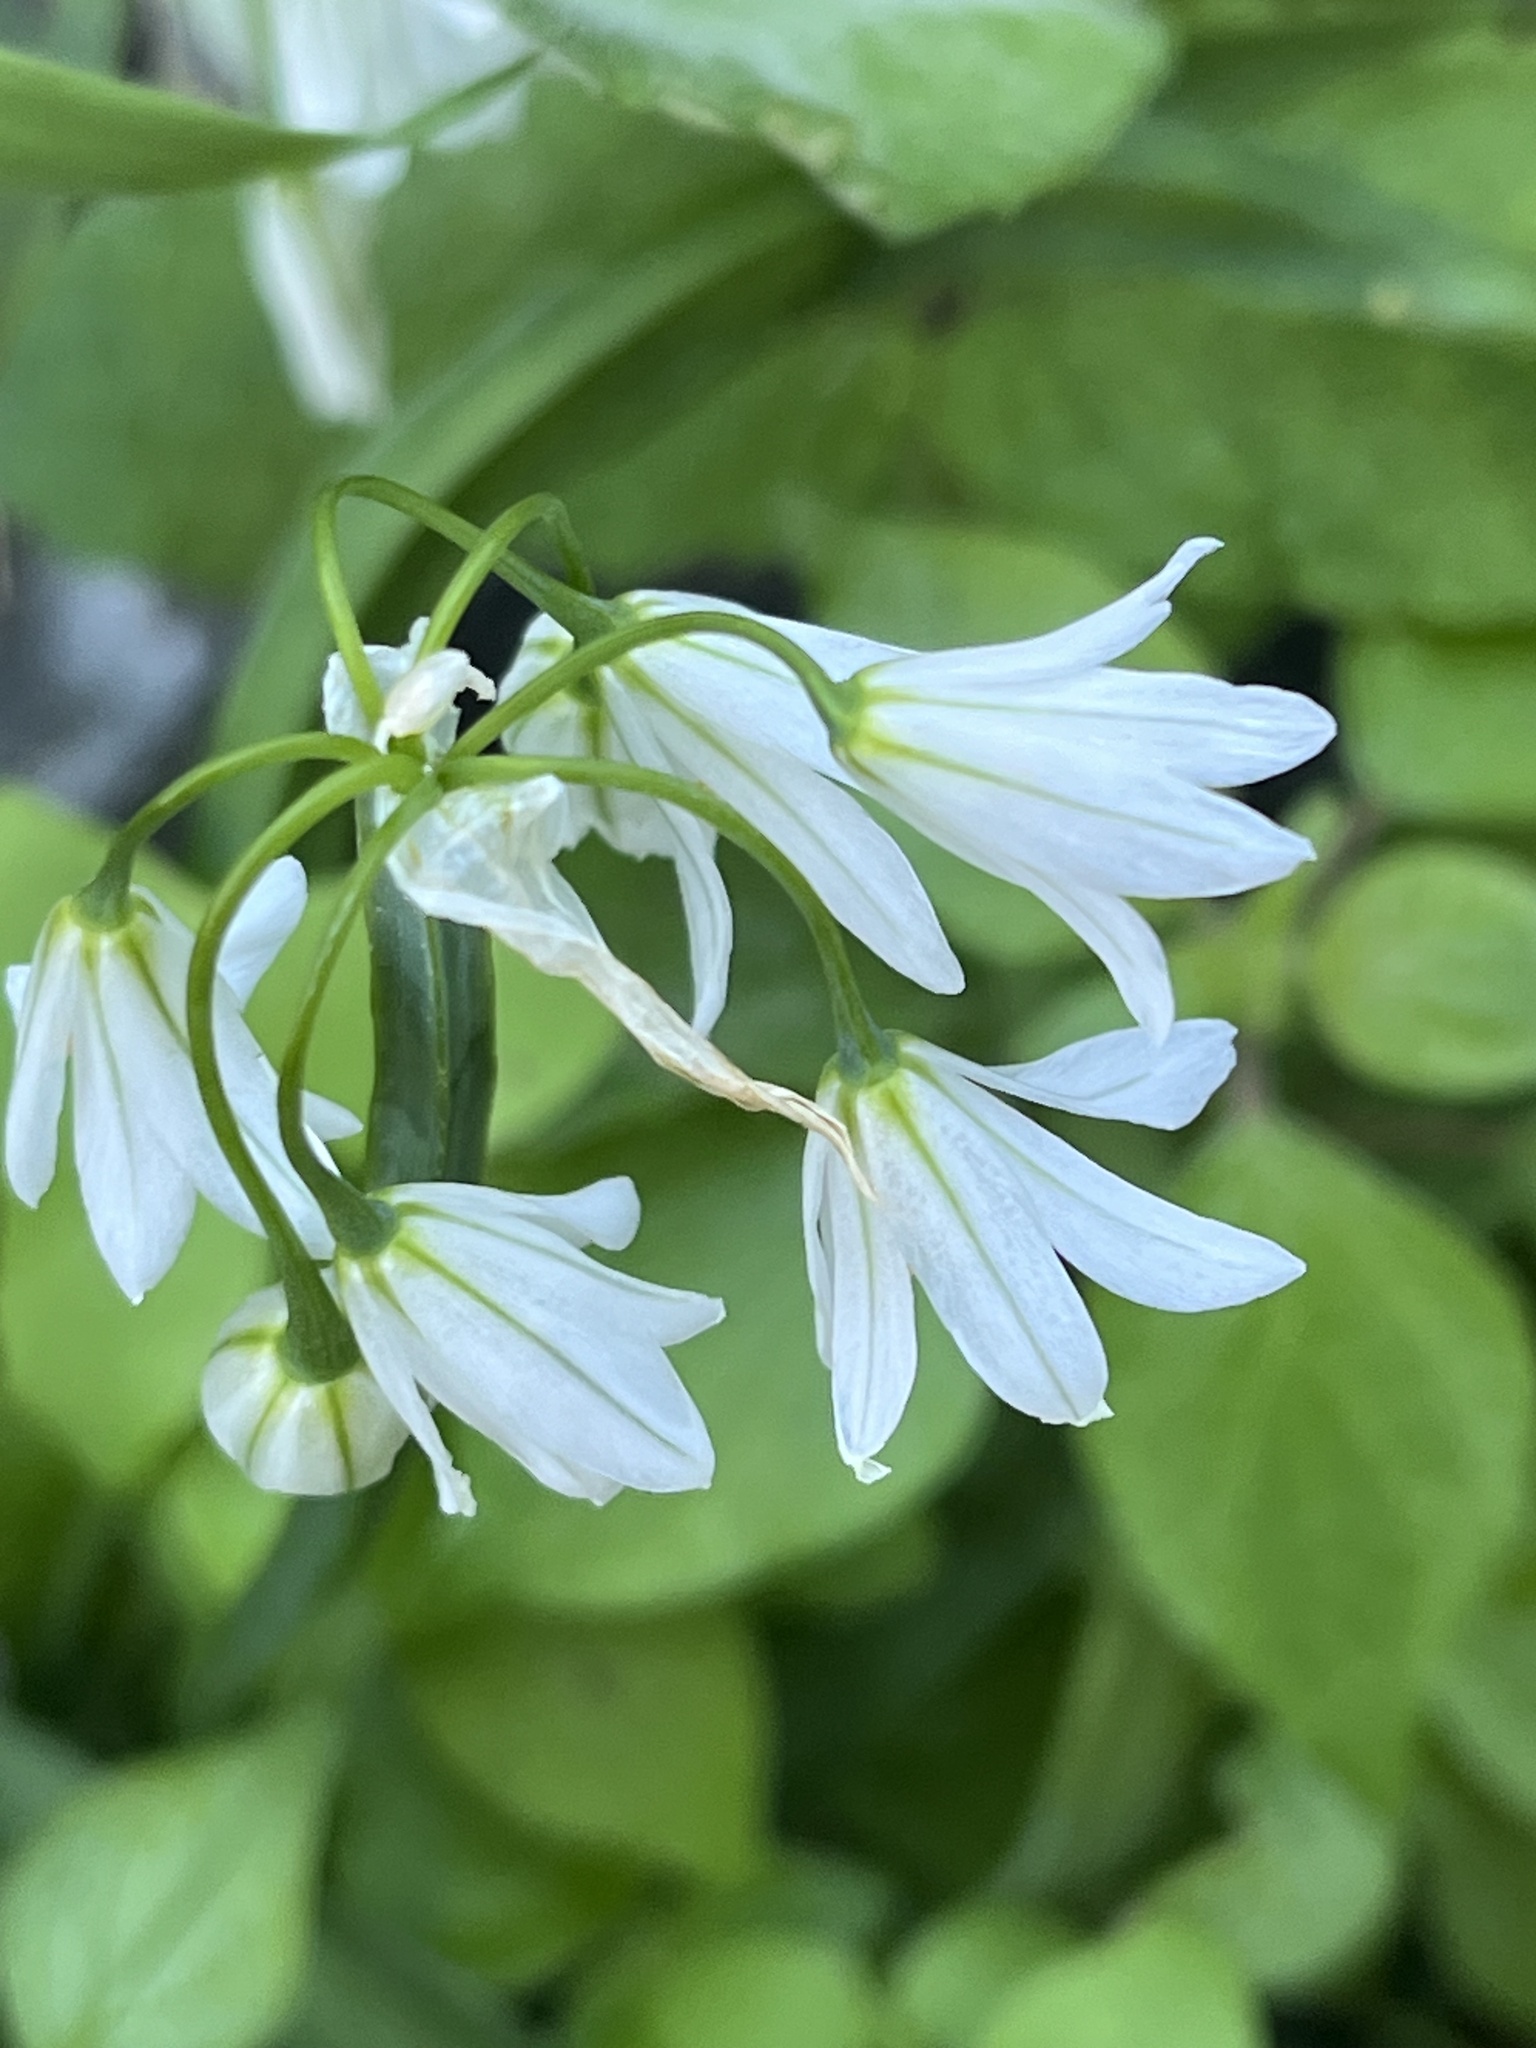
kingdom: Plantae
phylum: Tracheophyta
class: Liliopsida
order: Asparagales
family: Amaryllidaceae
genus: Allium
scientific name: Allium triquetrum
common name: Three-cornered garlic
